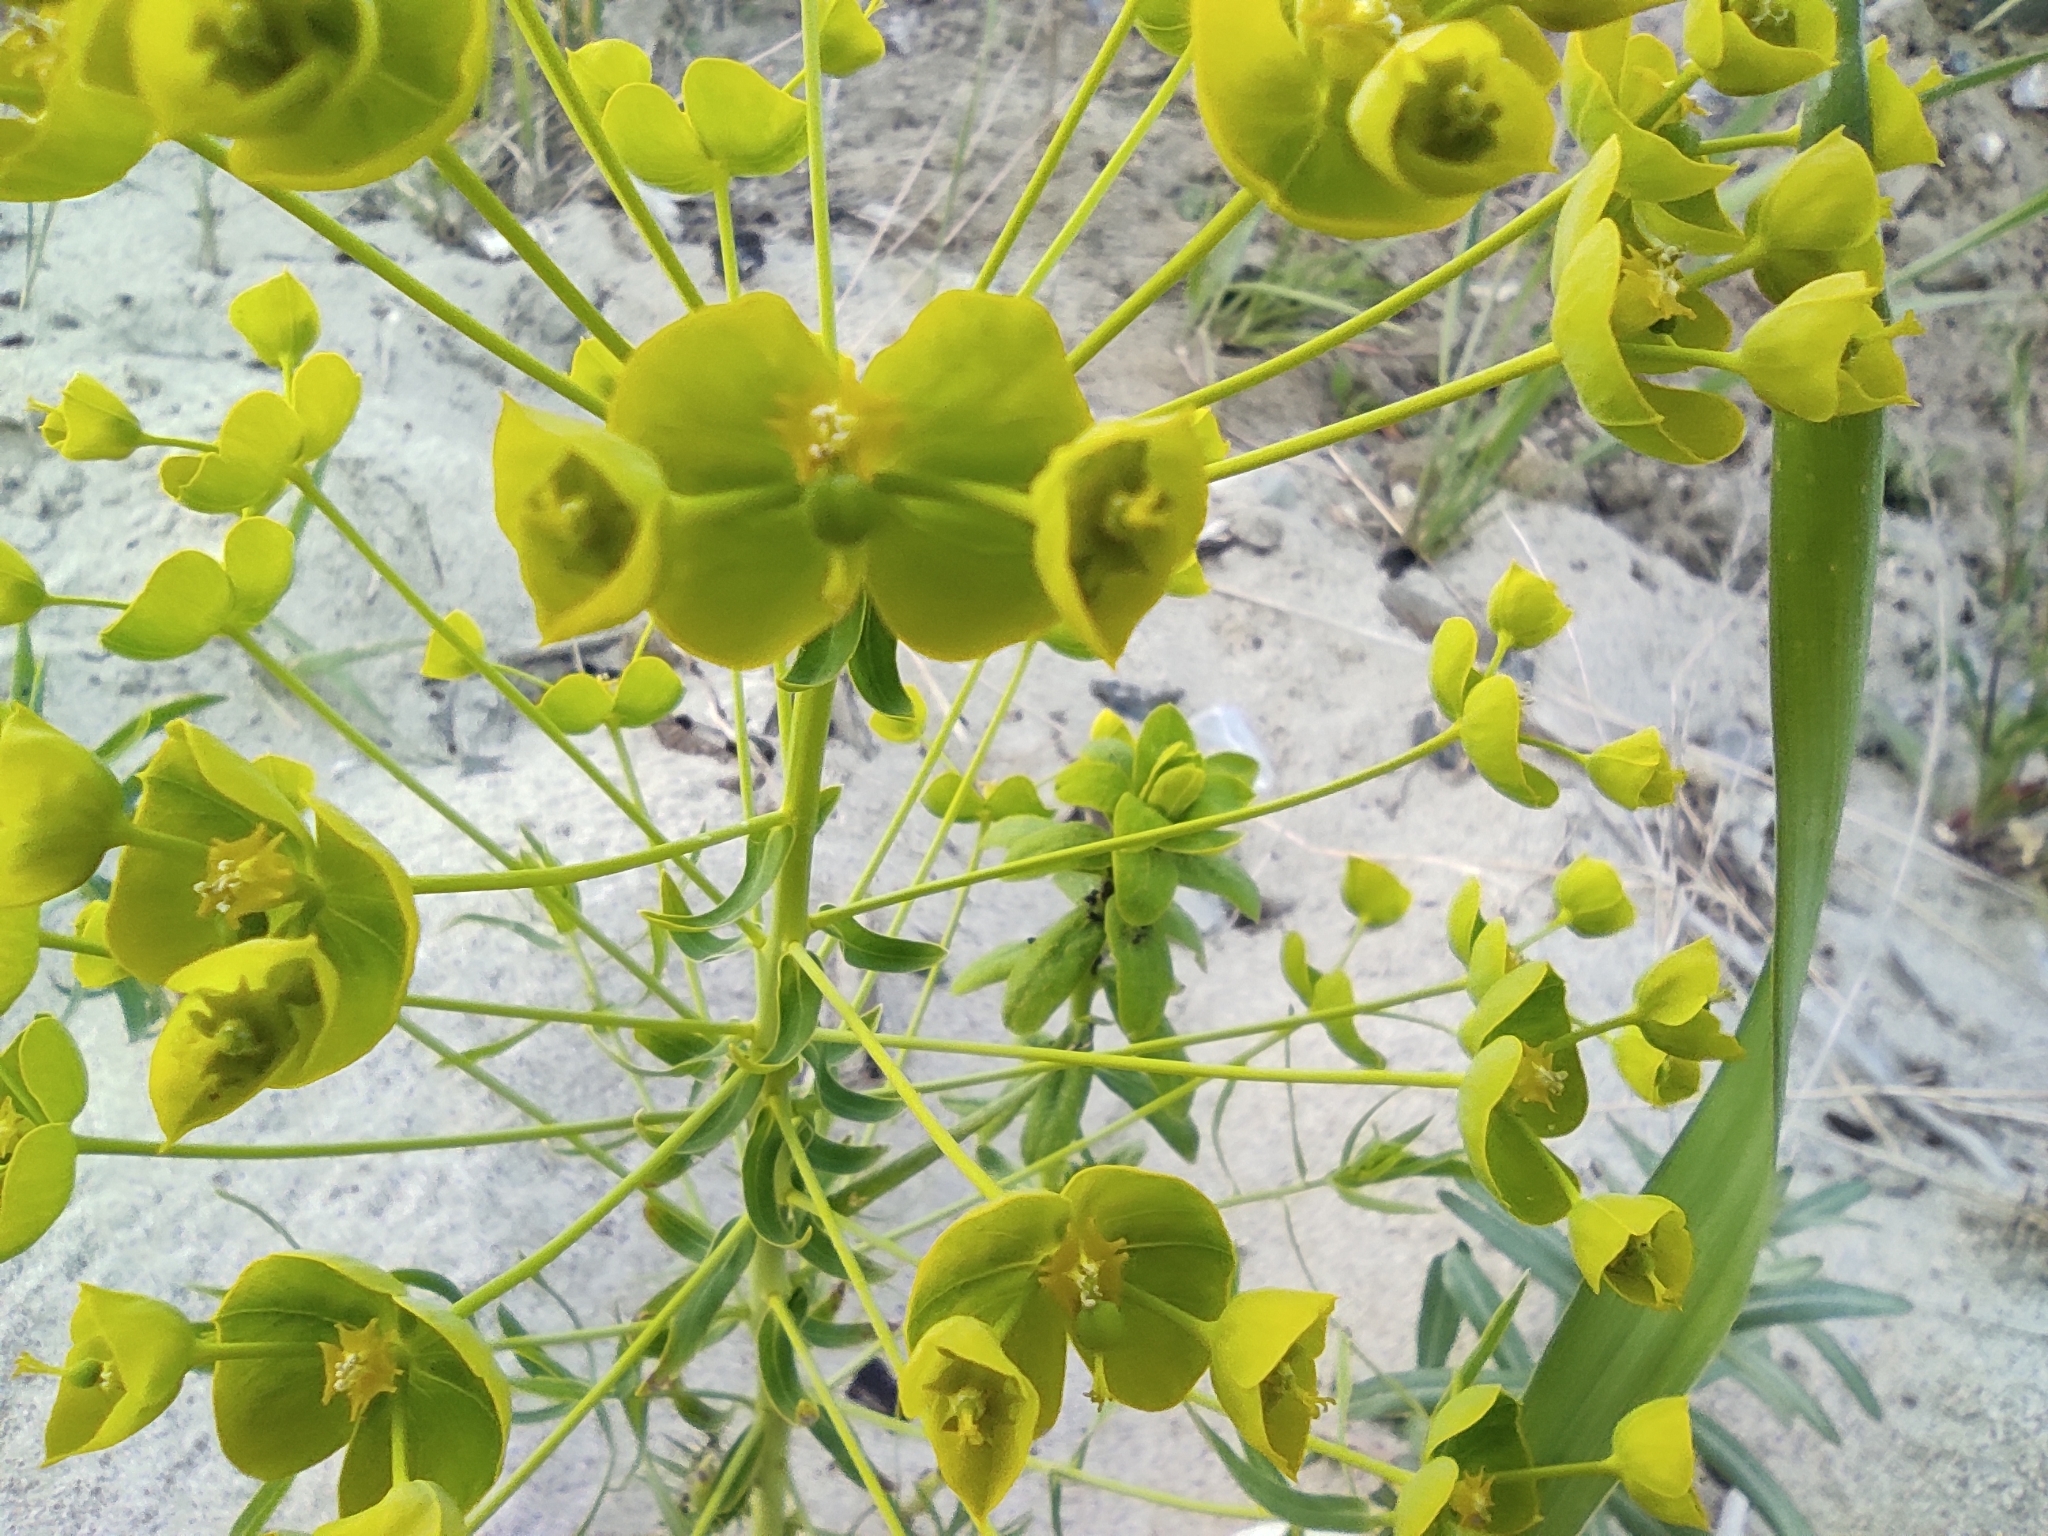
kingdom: Plantae
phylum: Tracheophyta
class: Magnoliopsida
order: Malpighiales
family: Euphorbiaceae
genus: Euphorbia
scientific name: Euphorbia virgata
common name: Leafy spurge
